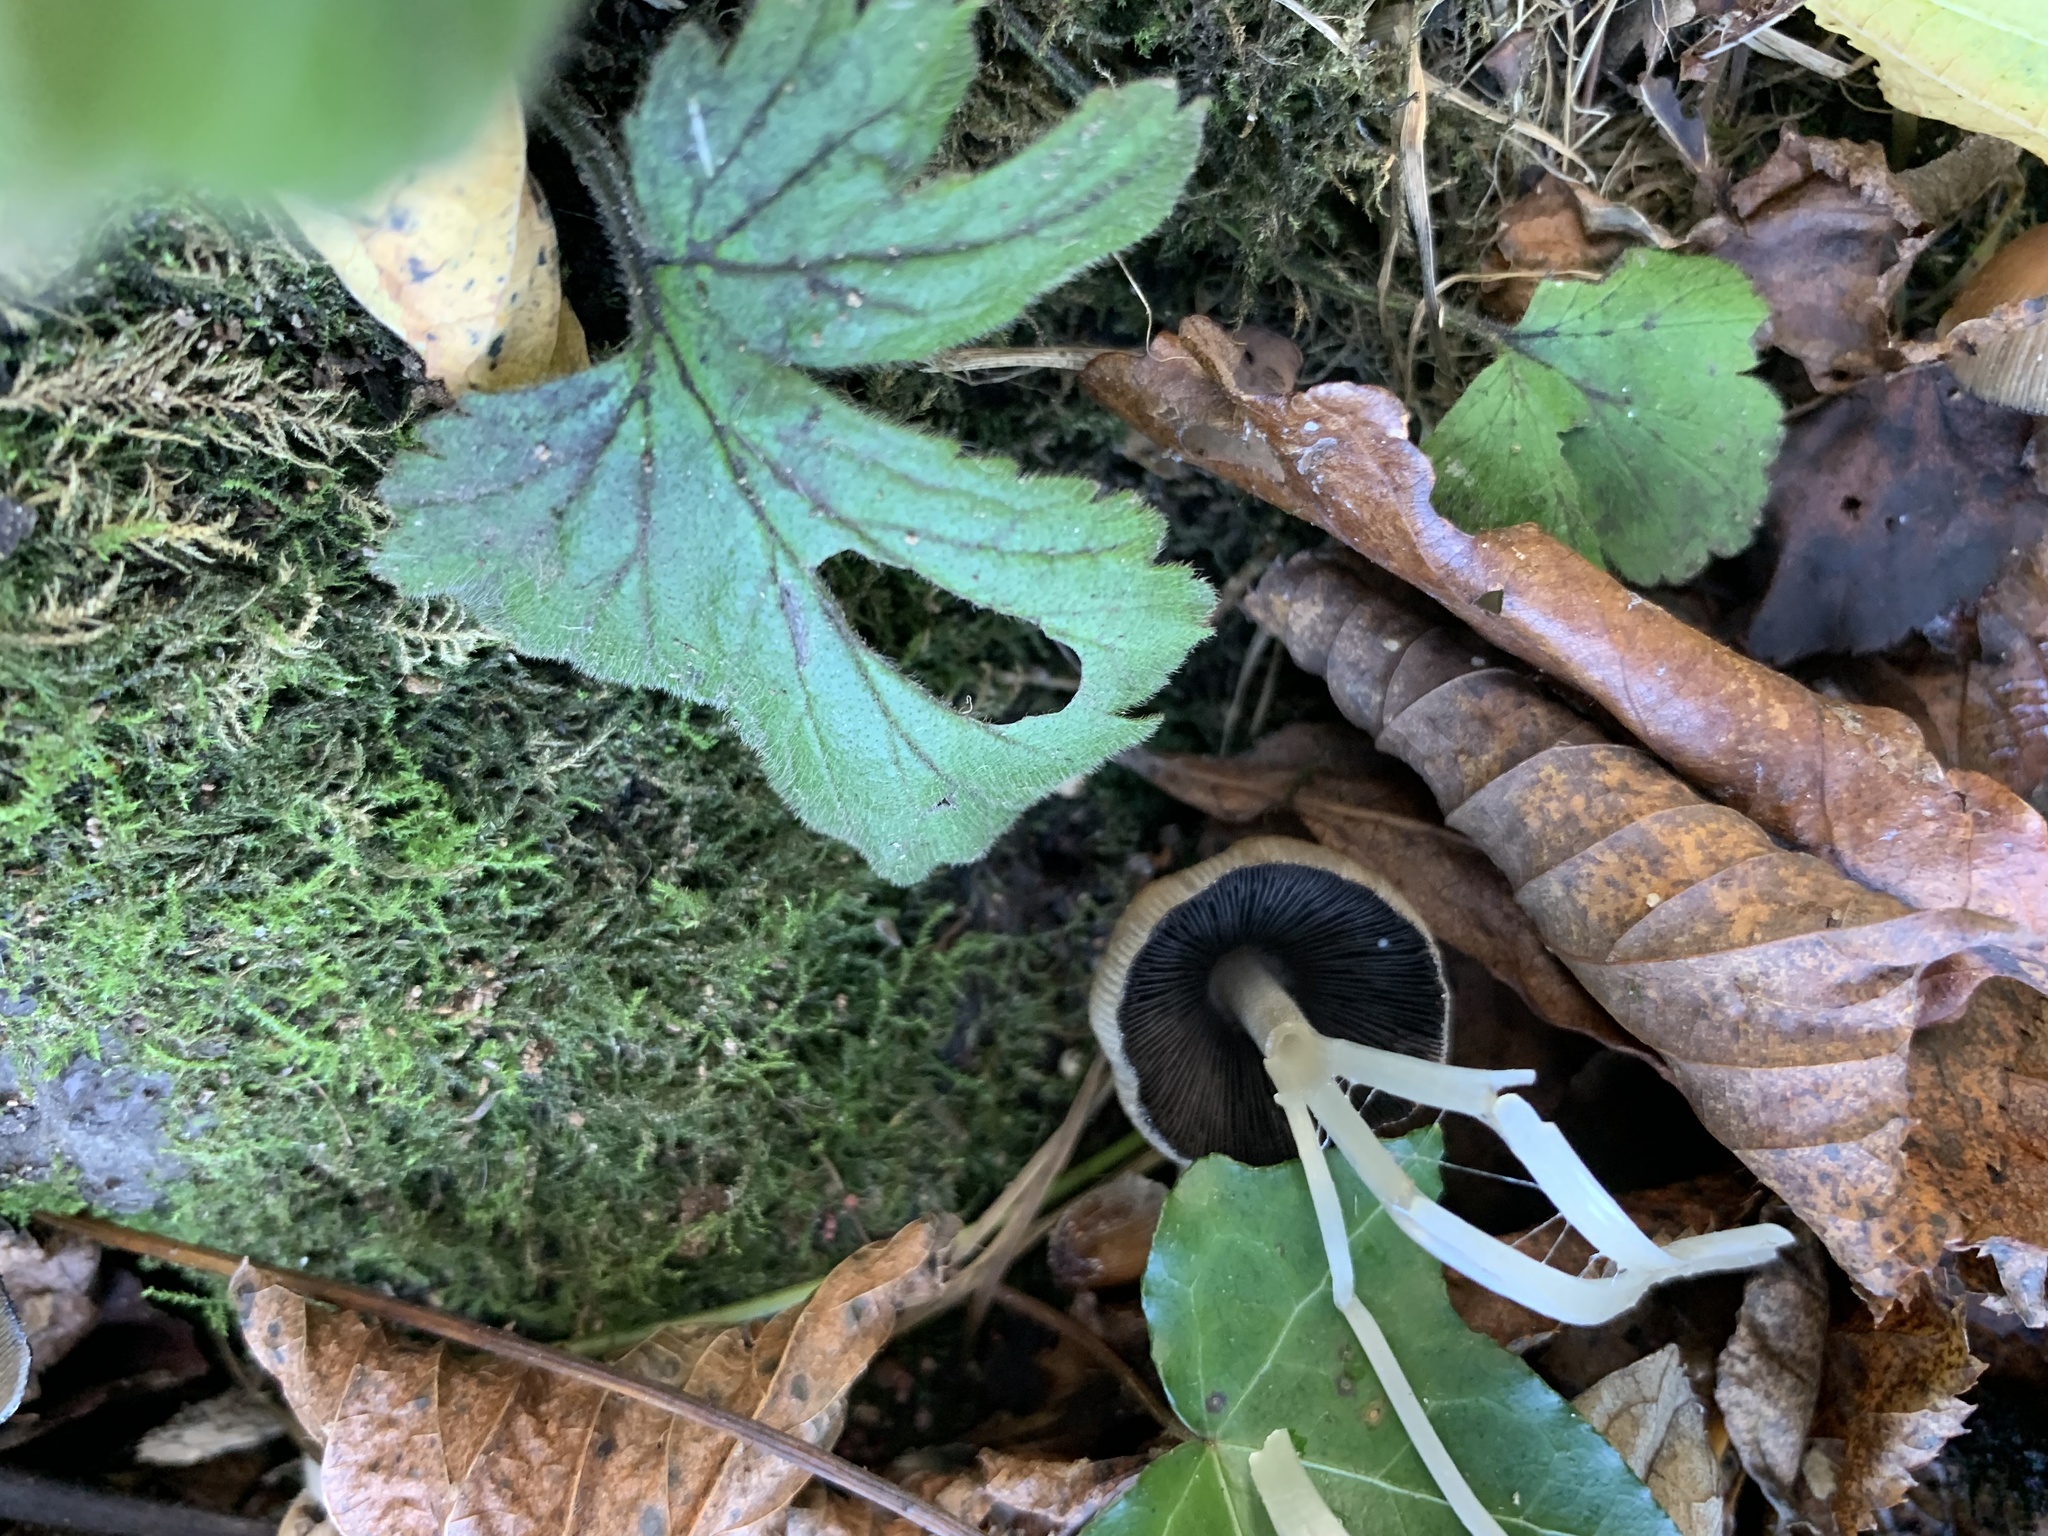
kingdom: Fungi
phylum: Basidiomycota
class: Agaricomycetes
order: Agaricales
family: Psathyrellaceae
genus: Coprinellus
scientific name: Coprinellus micaceus
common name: Glistening ink-cap
